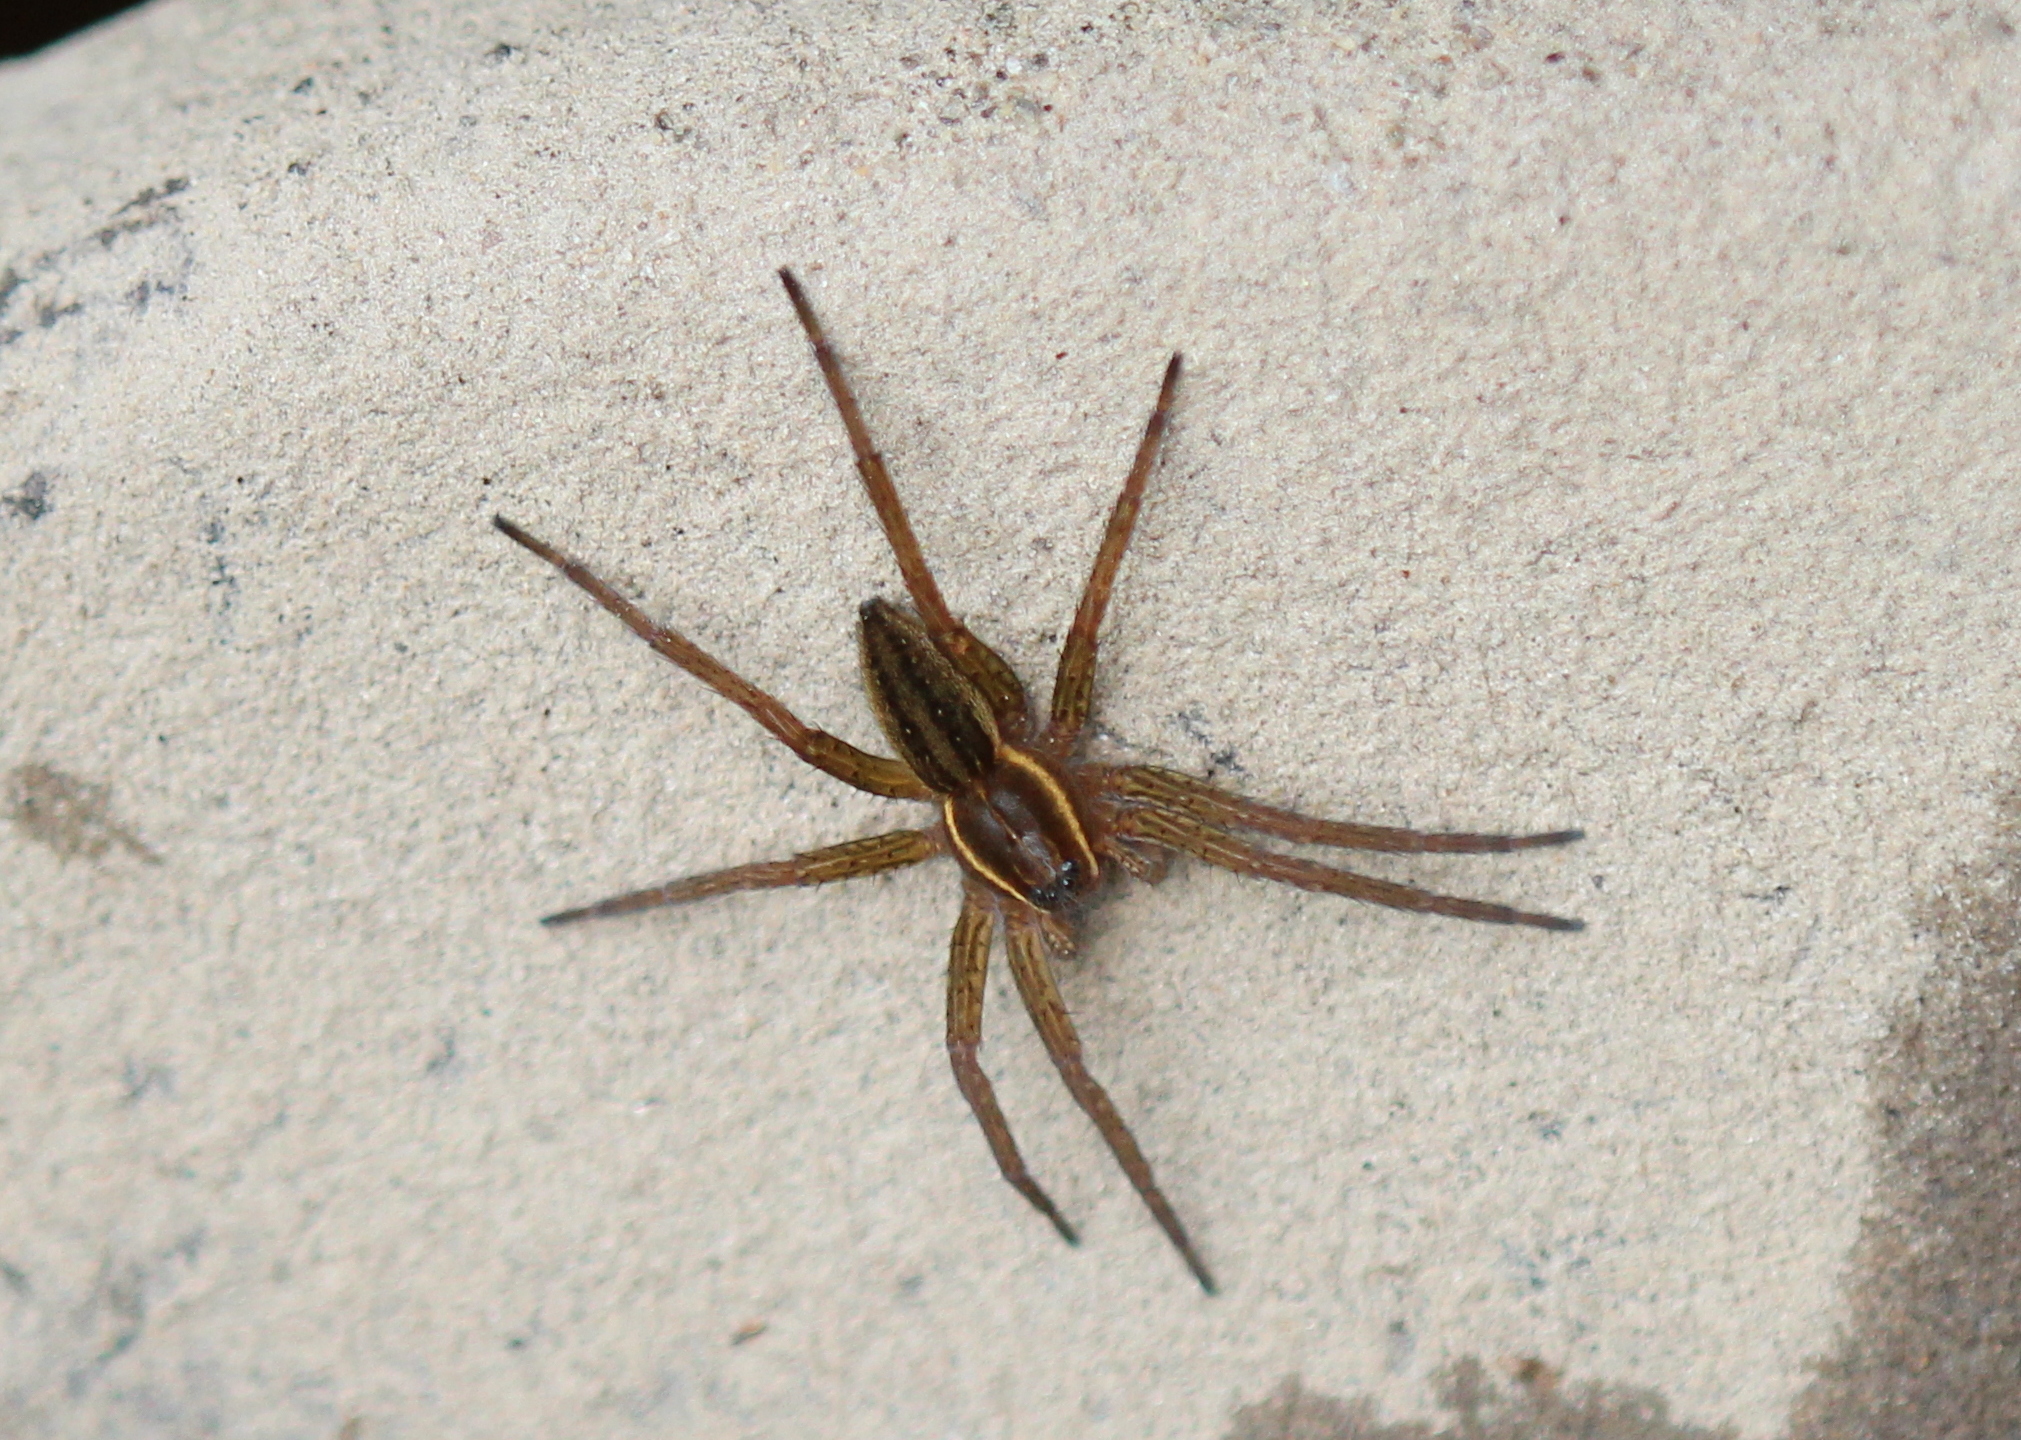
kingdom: Animalia
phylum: Arthropoda
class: Arachnida
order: Araneae
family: Pisauridae
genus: Dolomedes
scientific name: Dolomedes triton
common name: Six-spotted fishing spider
